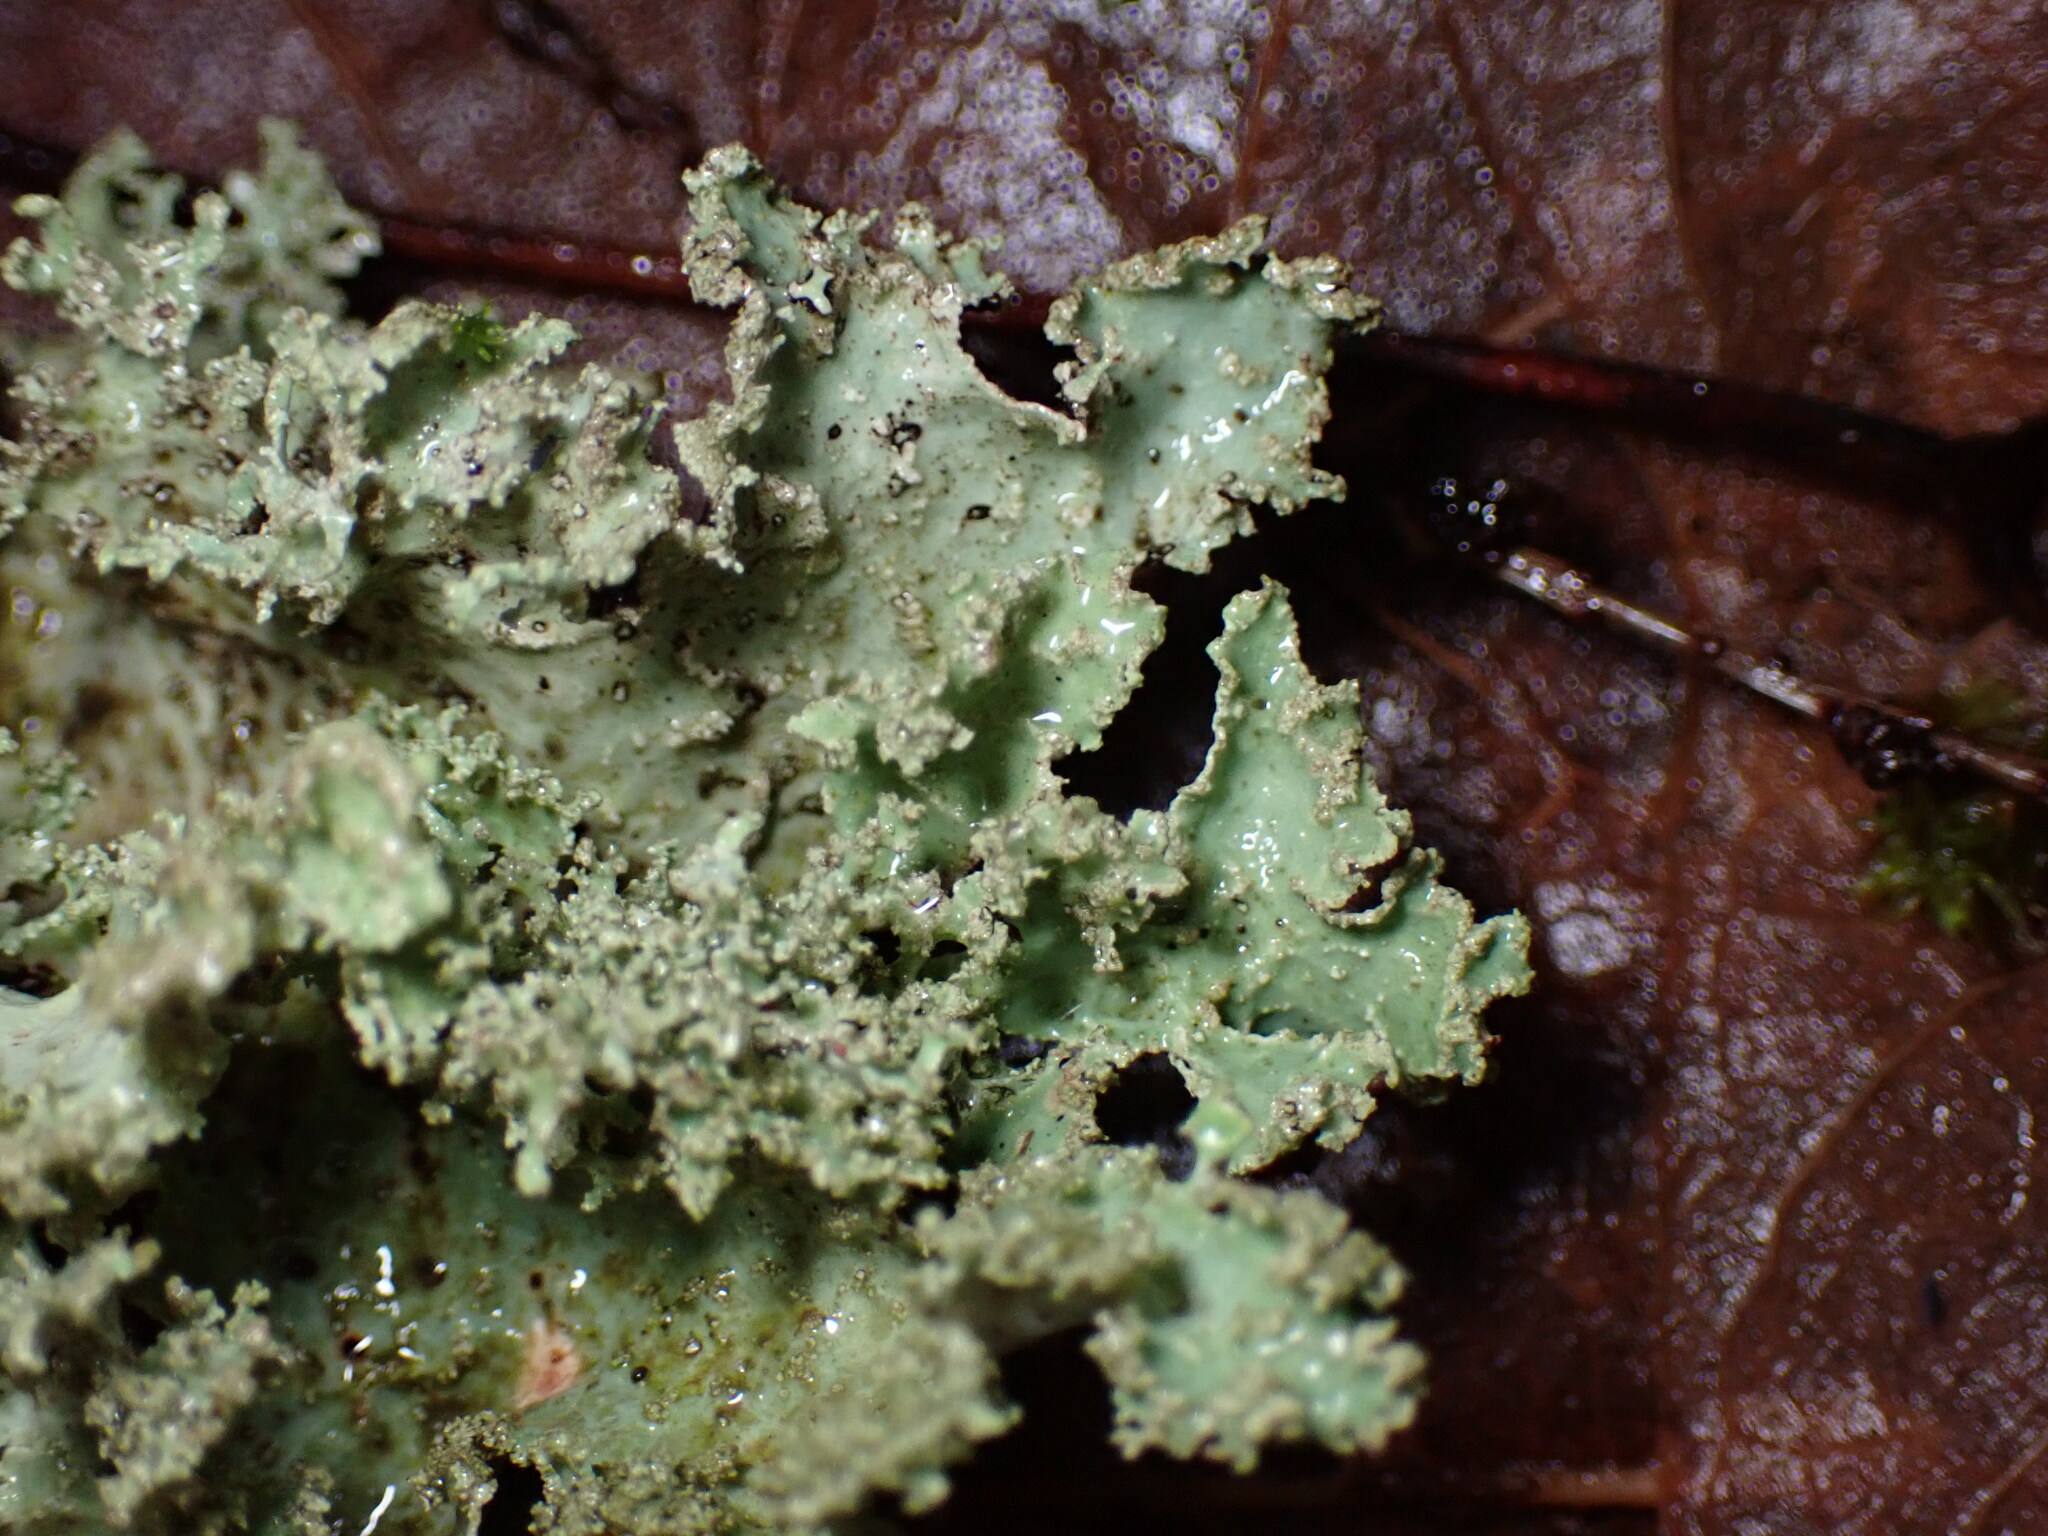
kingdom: Fungi
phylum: Ascomycota
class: Lecanoromycetes
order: Lecanorales
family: Parmeliaceae
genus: Platismatia
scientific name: Platismatia glauca
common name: Varied rag lichen
